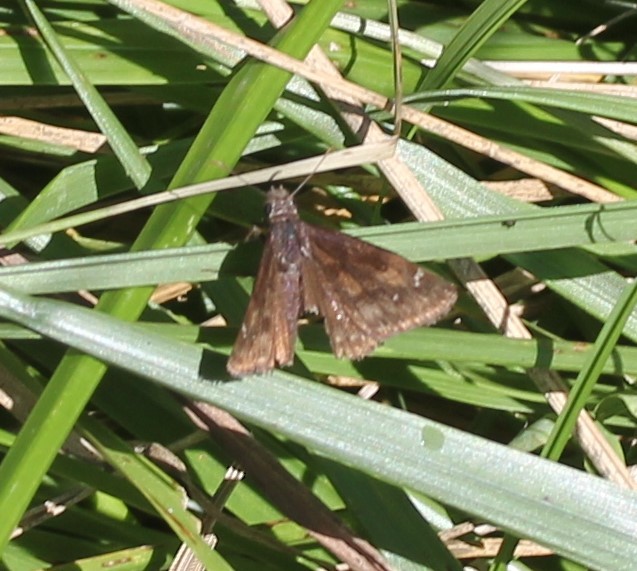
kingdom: Animalia
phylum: Arthropoda
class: Insecta
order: Lepidoptera
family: Hesperiidae
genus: Erynnis
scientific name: Erynnis baptisiae
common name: Wild indigo duskywing
